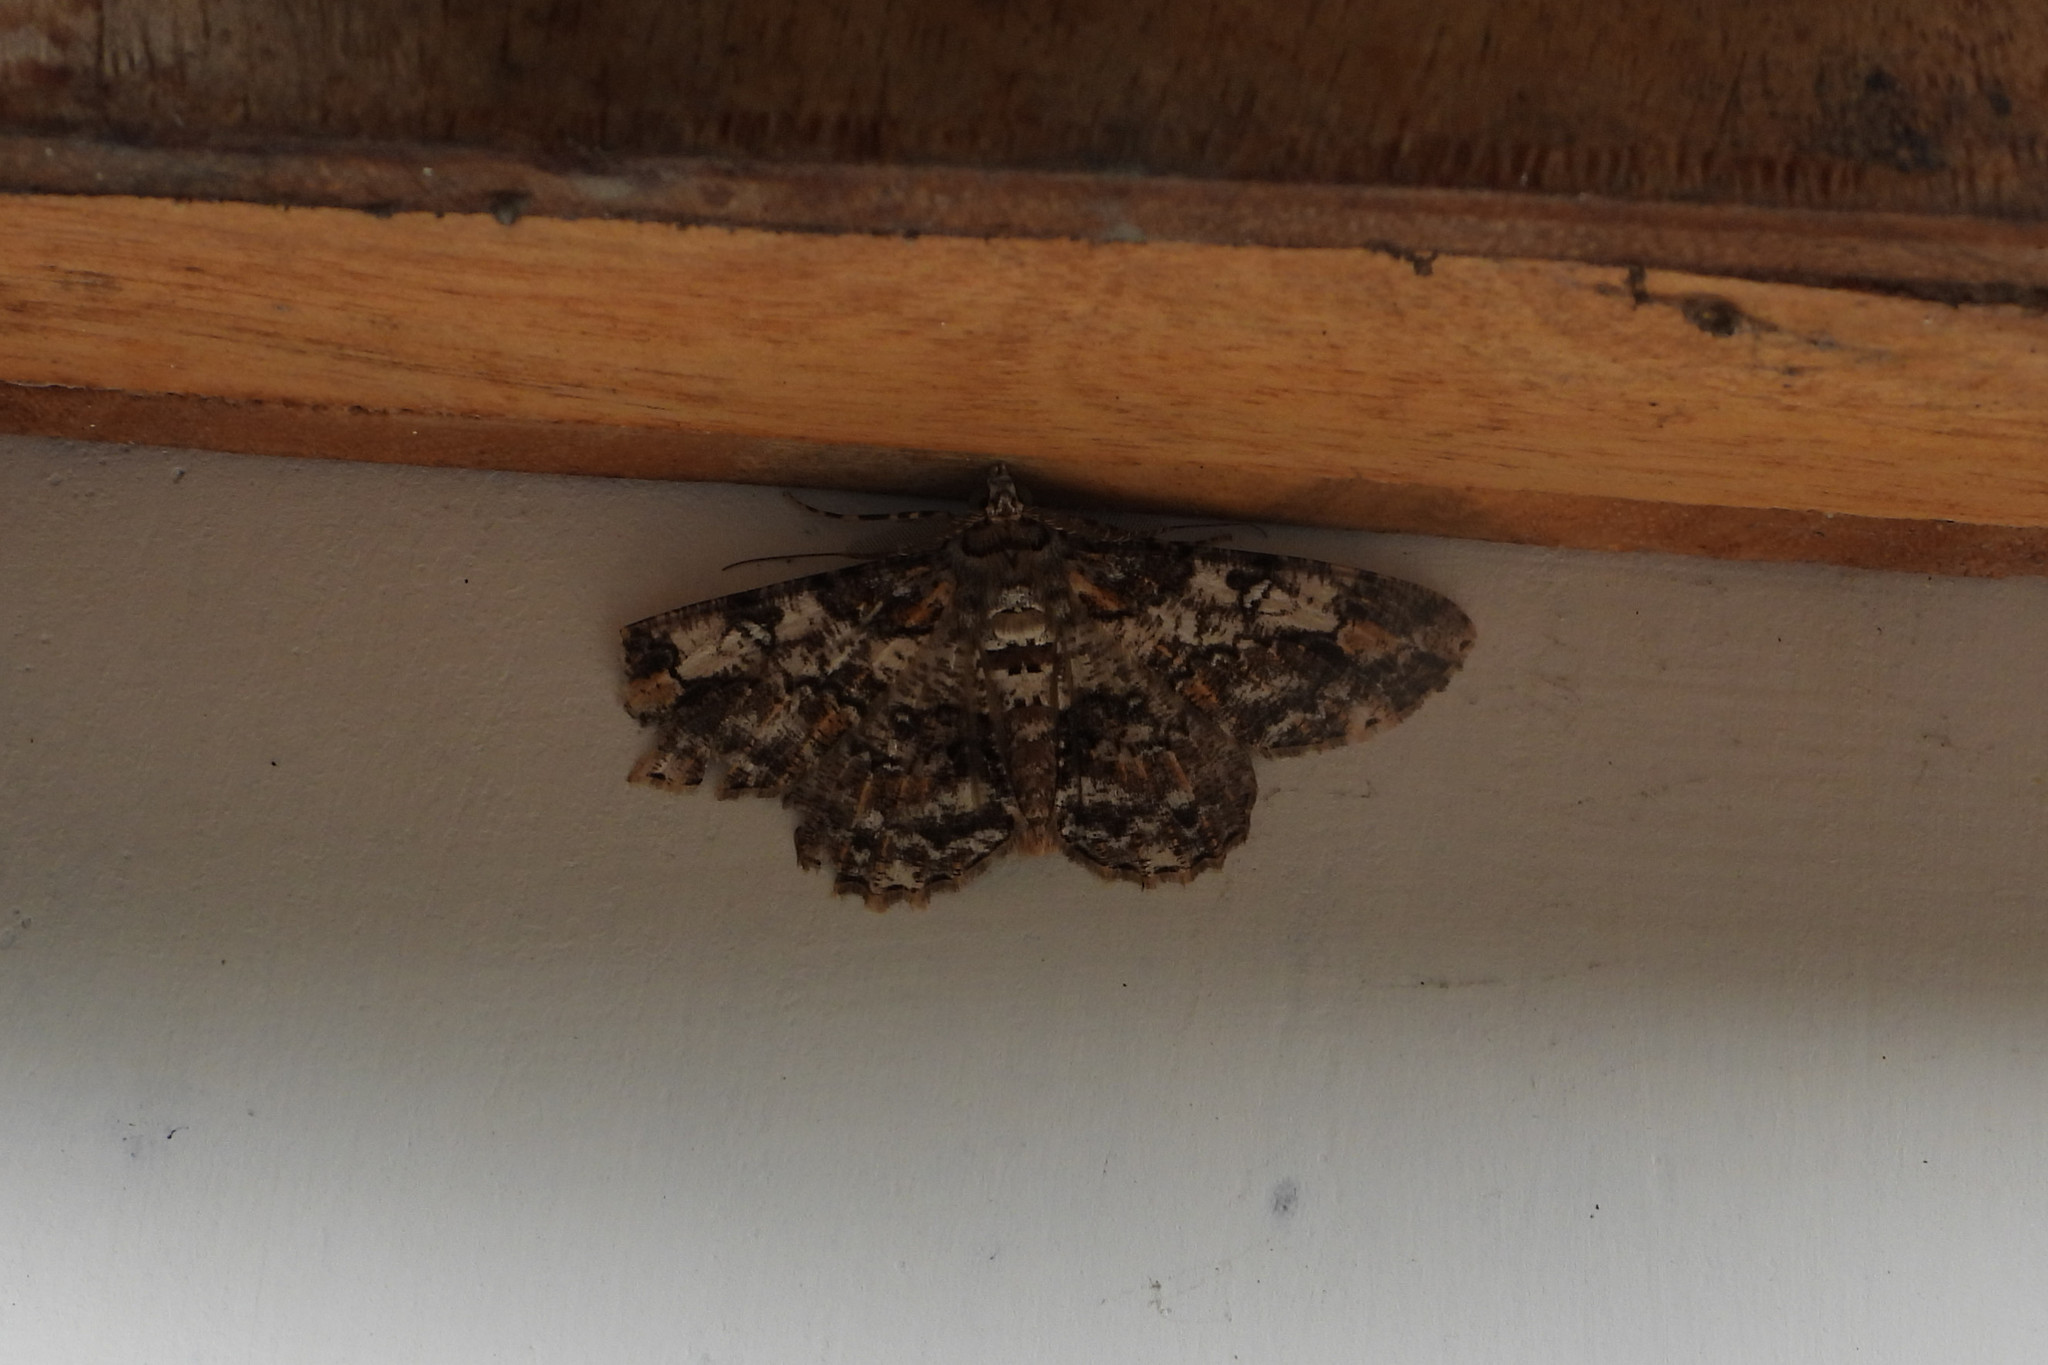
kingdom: Animalia
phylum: Arthropoda
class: Insecta
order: Lepidoptera
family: Geometridae
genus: Cleora
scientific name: Cleora alienaria
